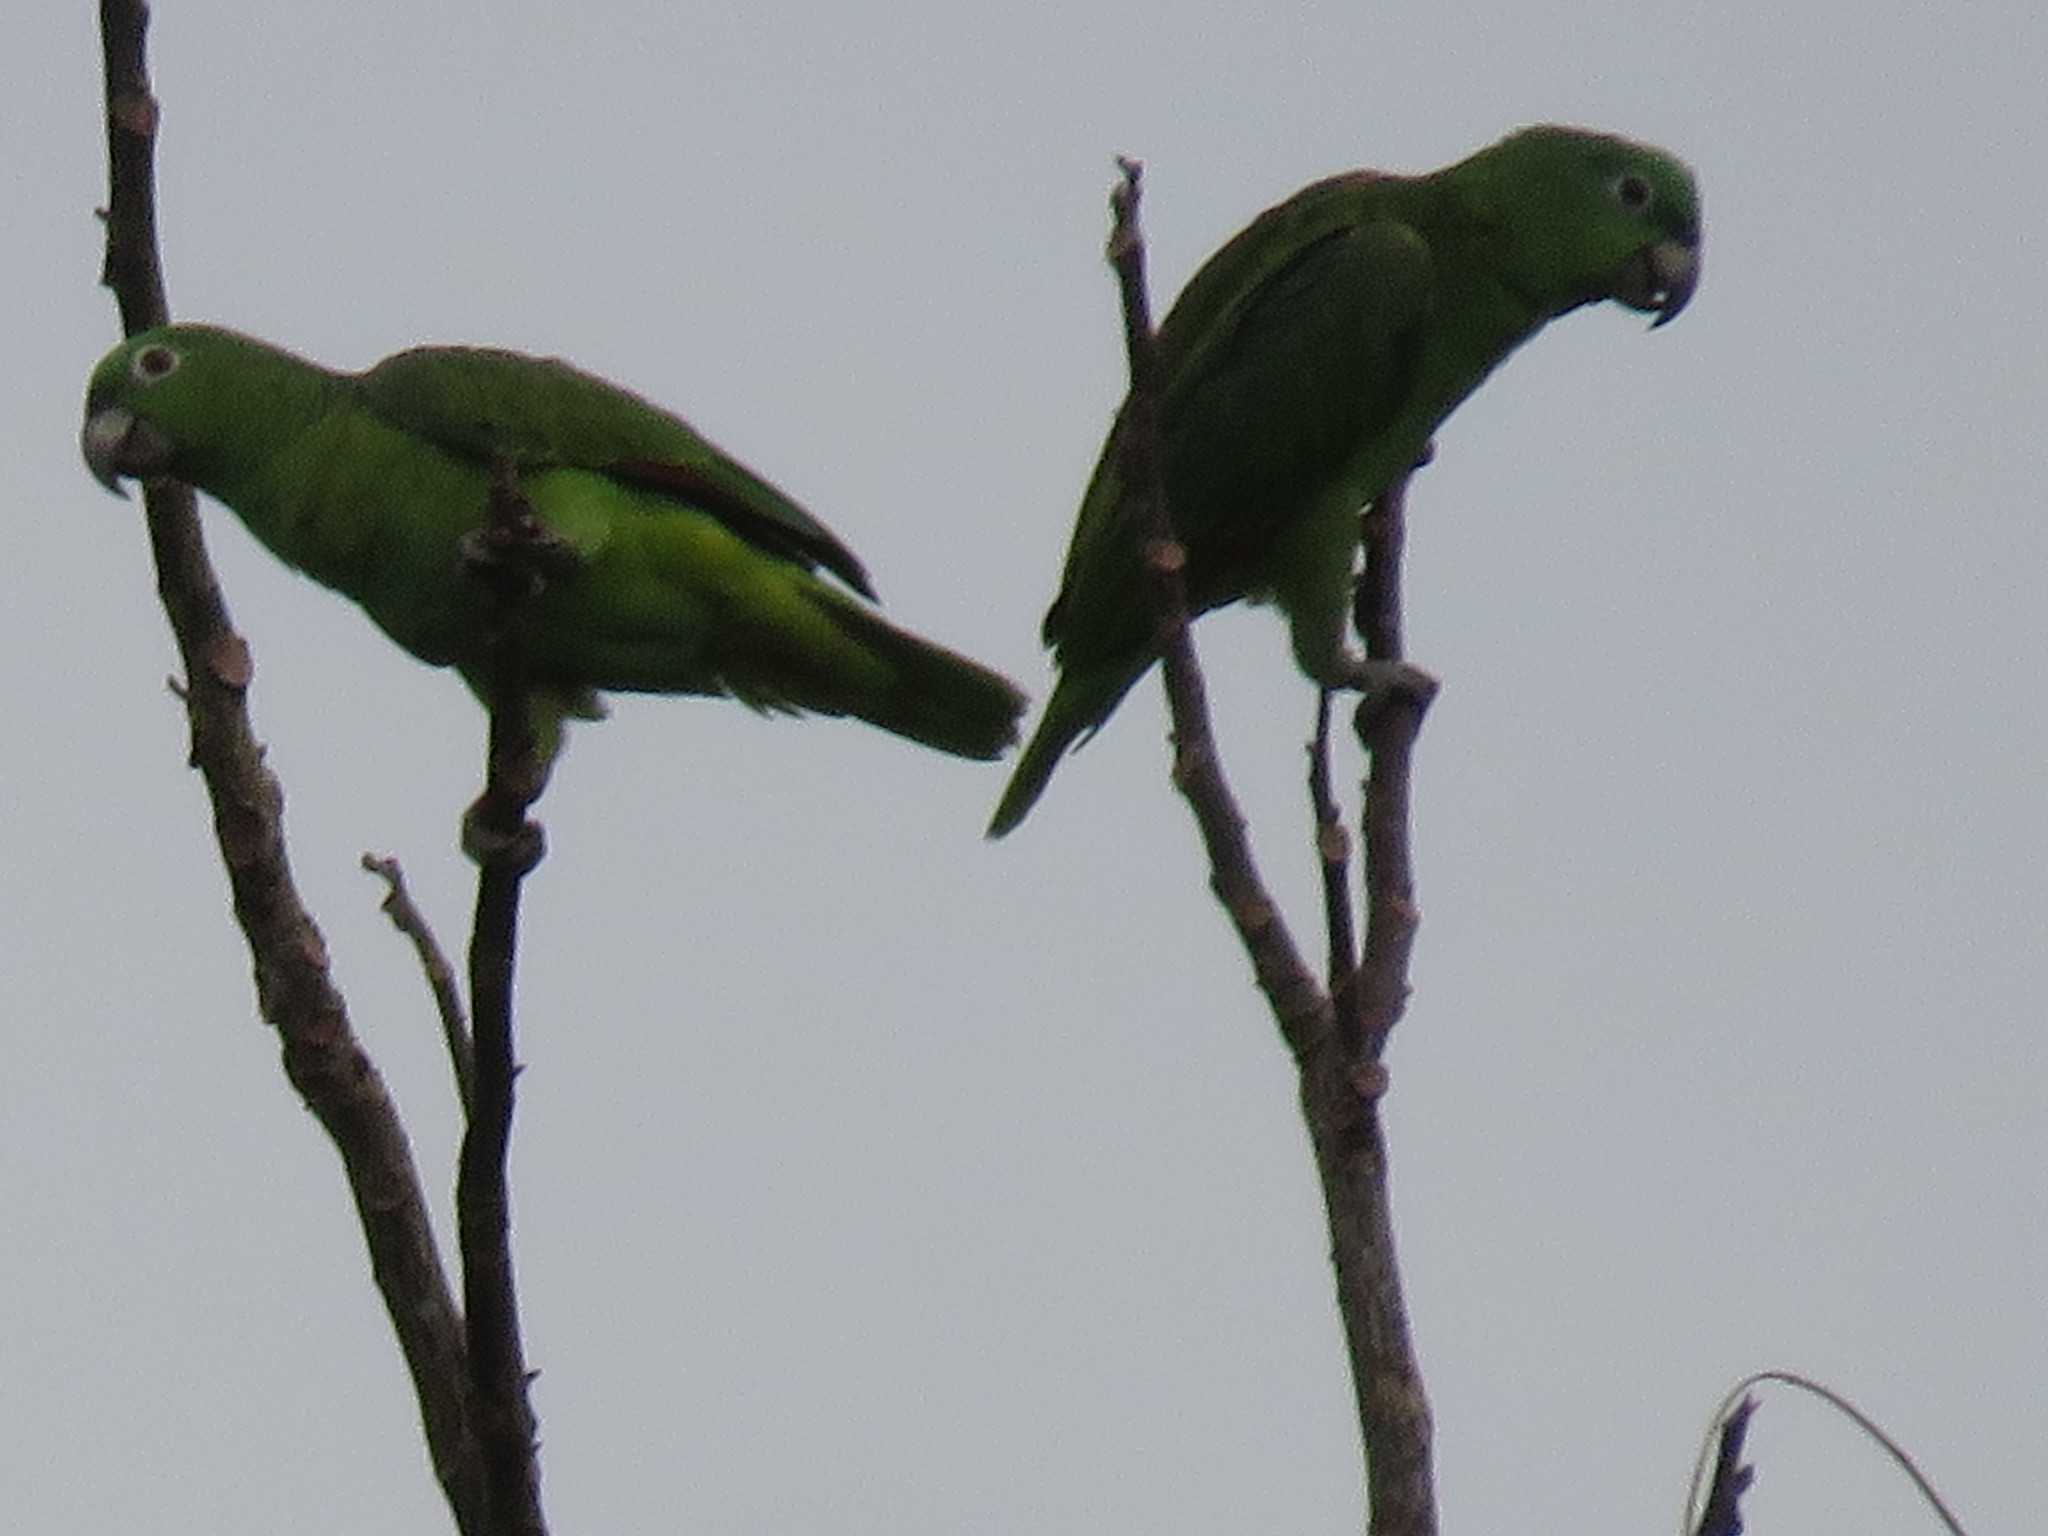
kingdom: Animalia
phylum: Chordata
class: Aves
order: Psittaciformes
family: Psittacidae
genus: Amazona
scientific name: Amazona farinosa
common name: Mealy parrot
